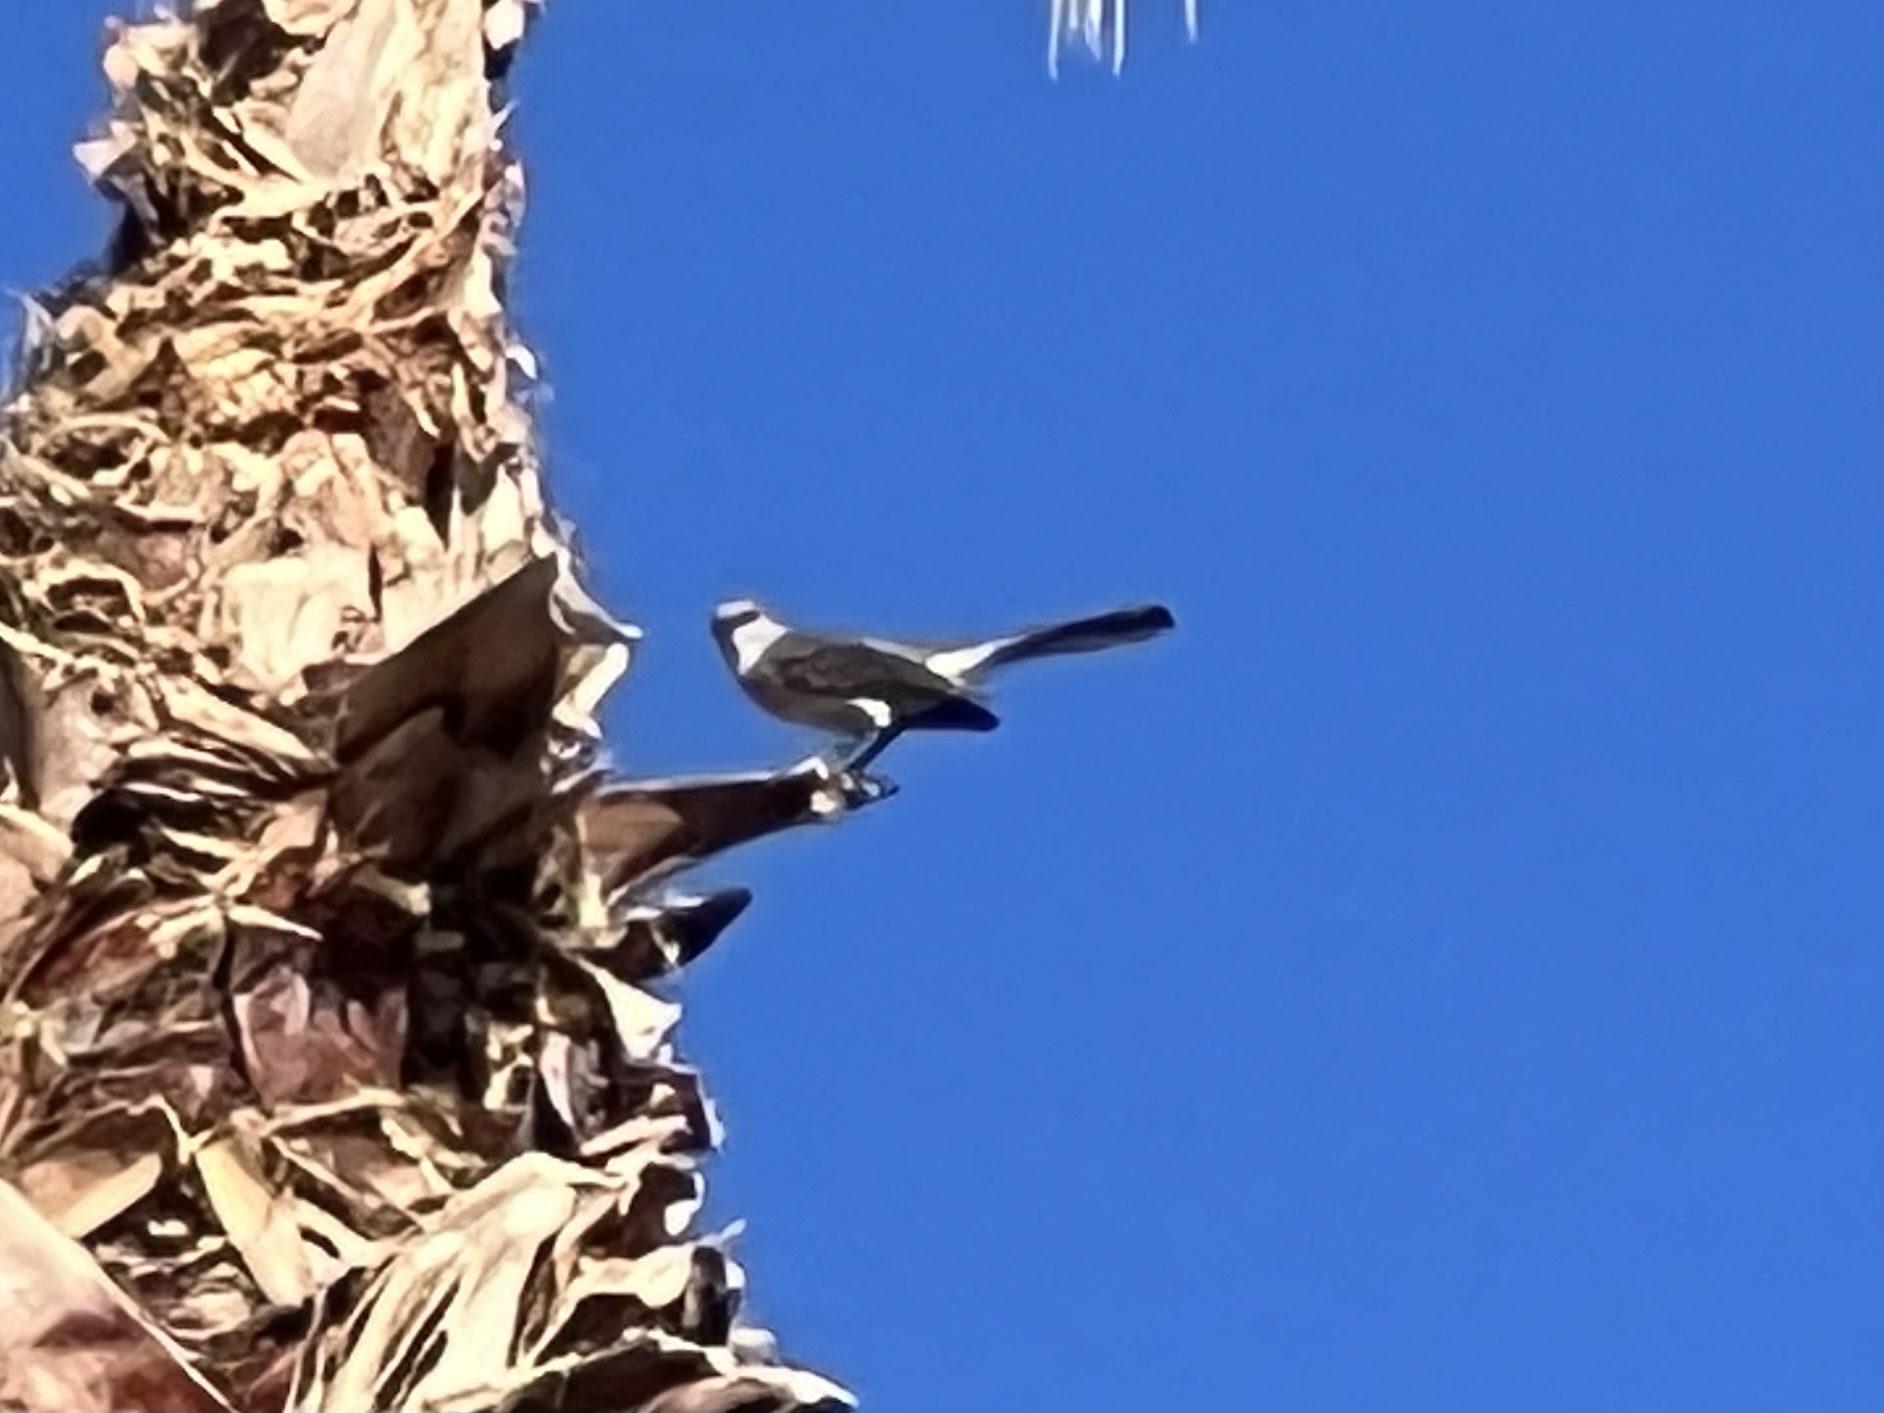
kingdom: Animalia
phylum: Chordata
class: Aves
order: Passeriformes
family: Mimidae
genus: Mimus
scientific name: Mimus polyglottos
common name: Northern mockingbird
